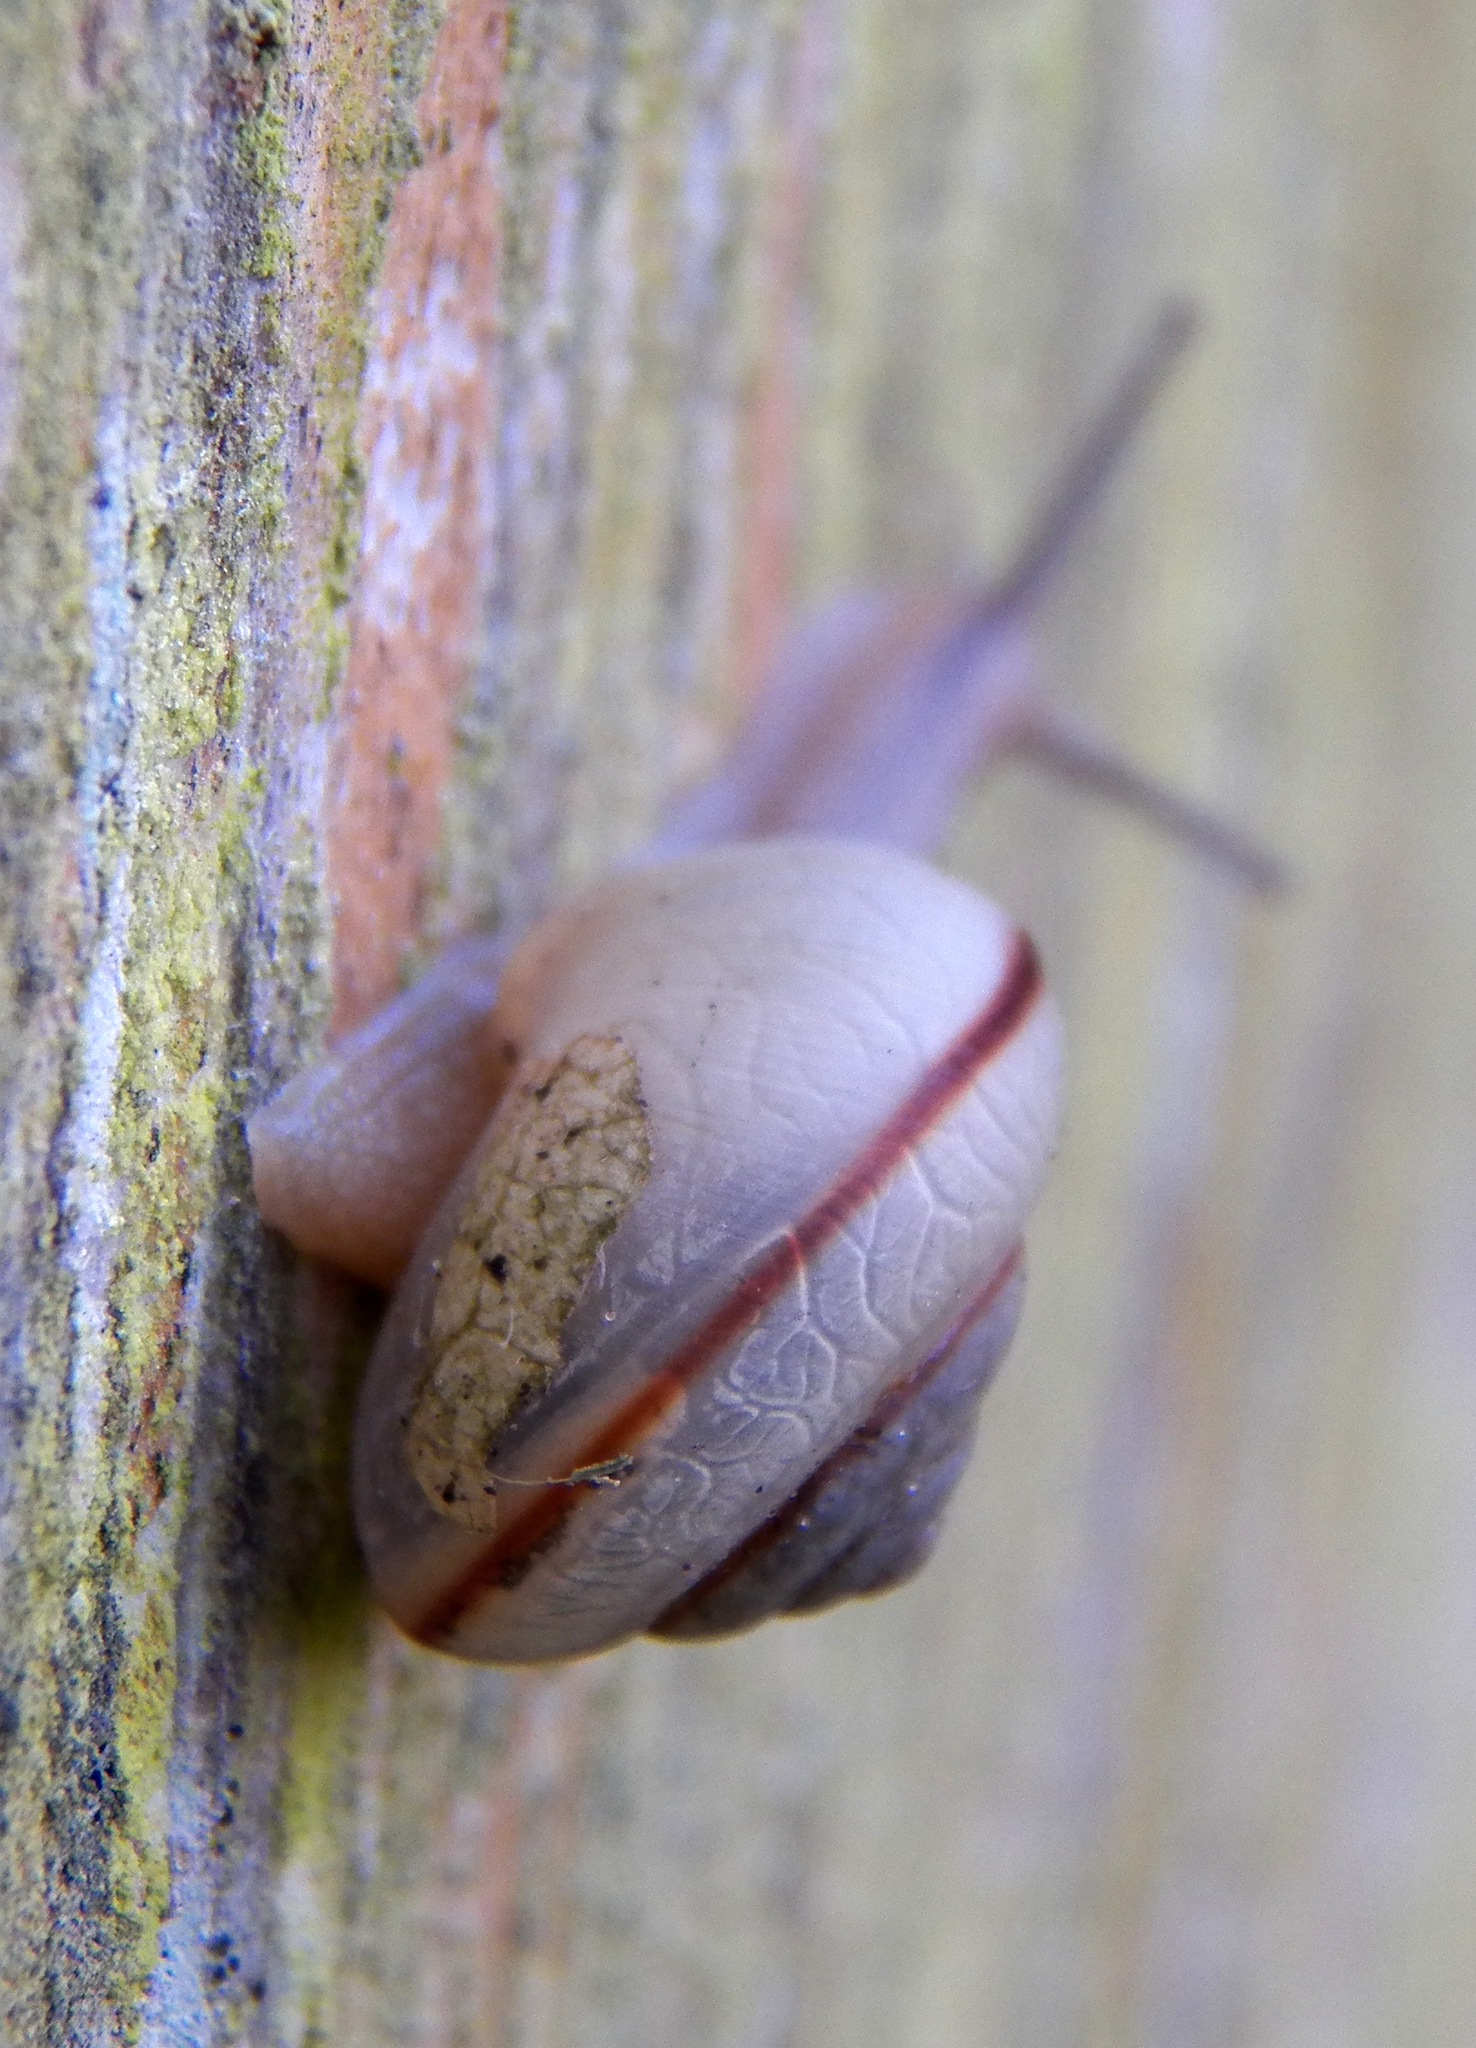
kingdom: Animalia
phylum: Mollusca
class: Gastropoda
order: Stylommatophora
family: Camaenidae
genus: Bradybaena
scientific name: Bradybaena similaris
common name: Asian trampsnail
